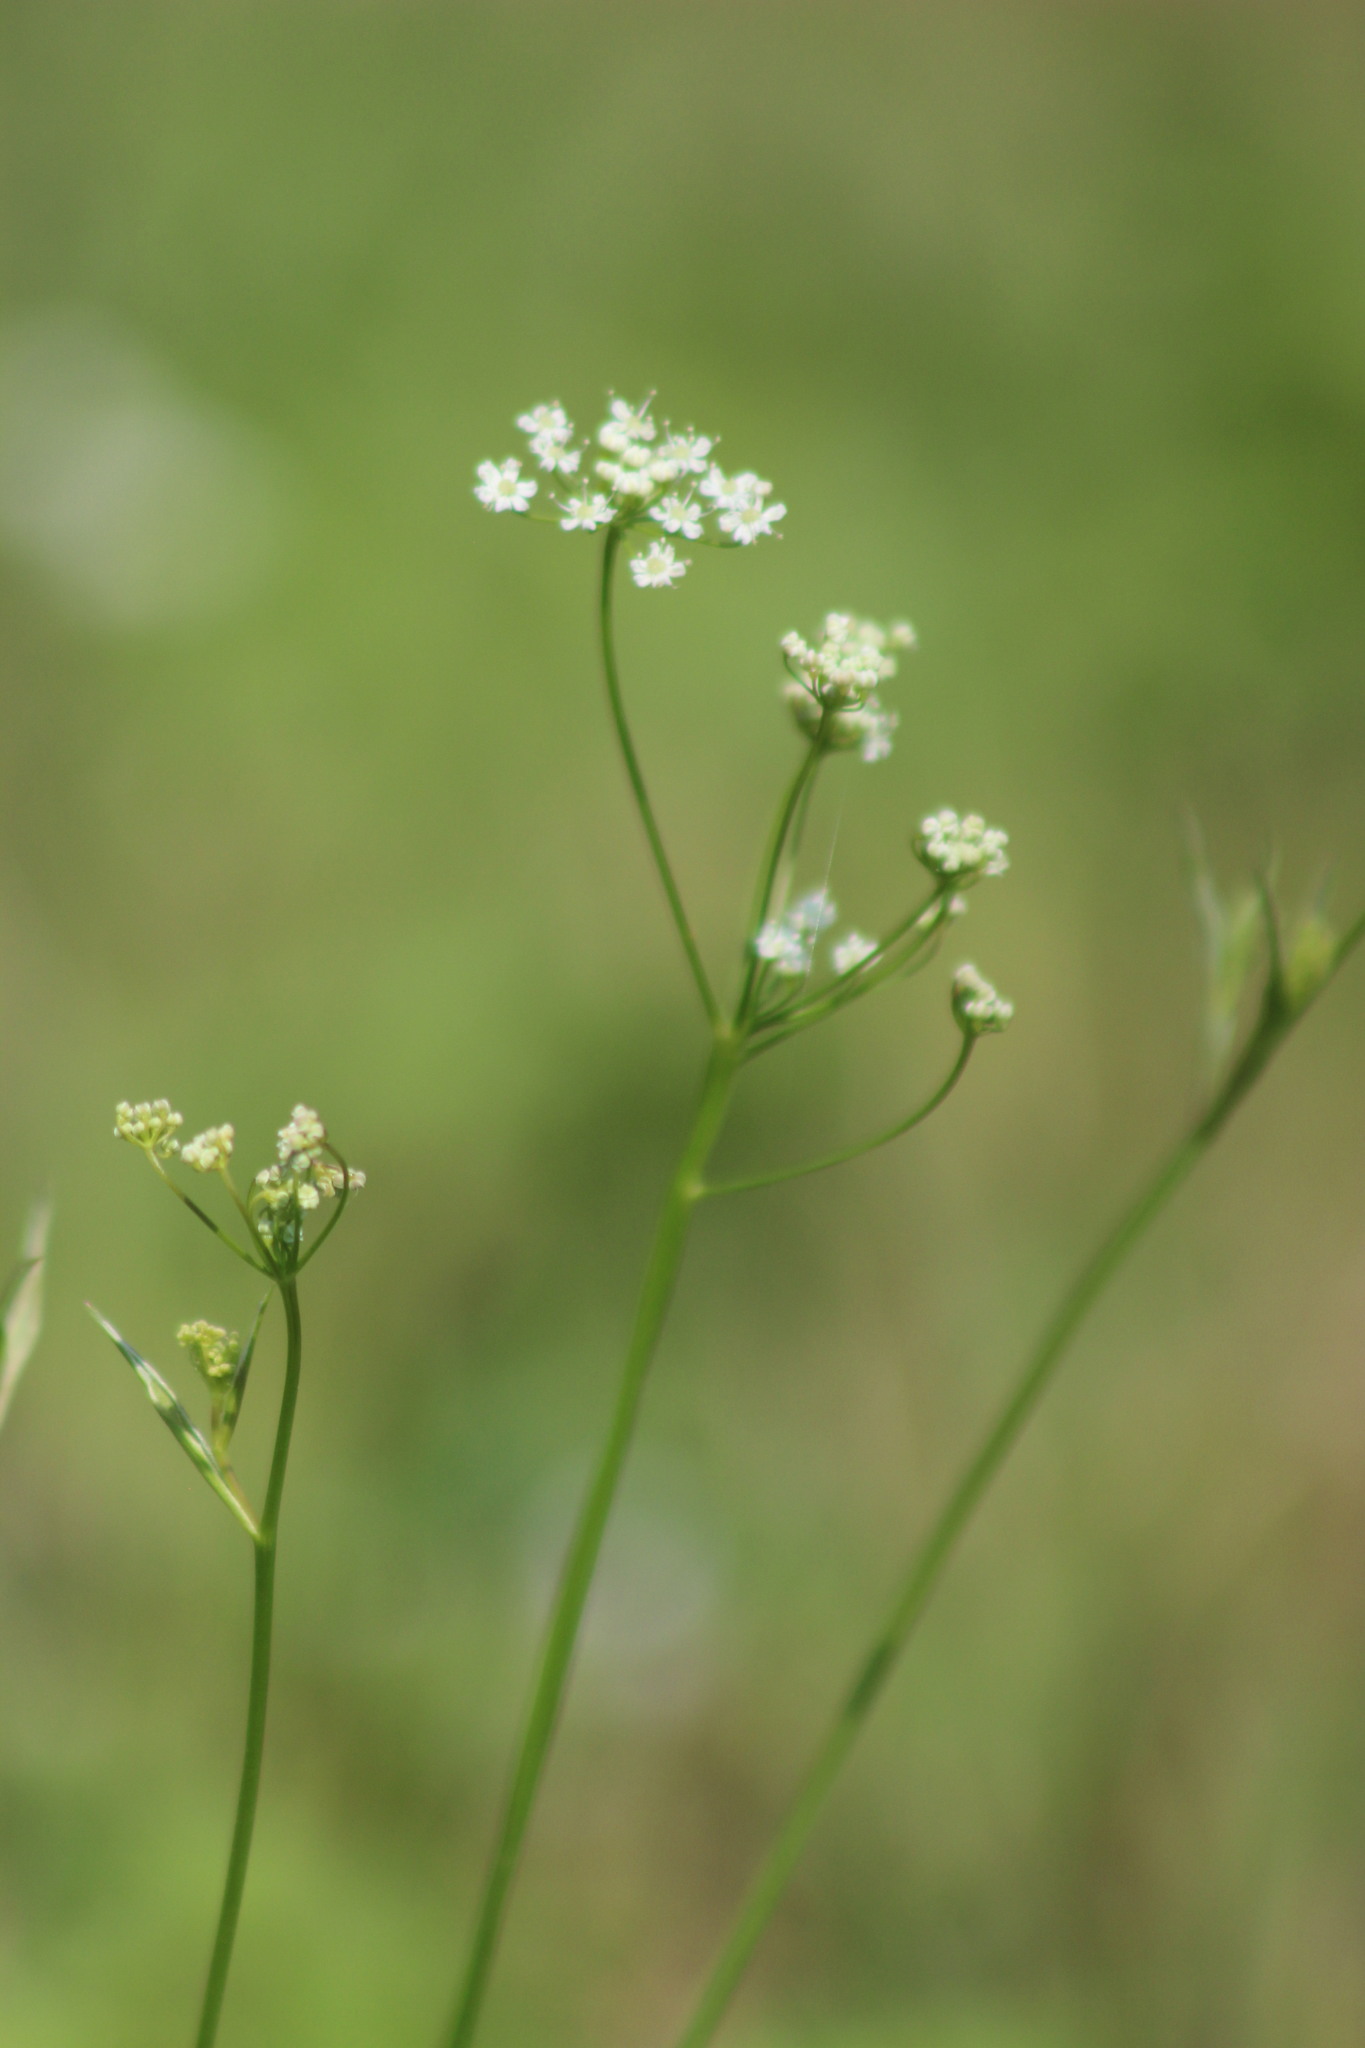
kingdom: Plantae
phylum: Tracheophyta
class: Magnoliopsida
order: Apiales
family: Apiaceae
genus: Pimpinella
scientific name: Pimpinella saxifraga
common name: Burnet-saxifrage
